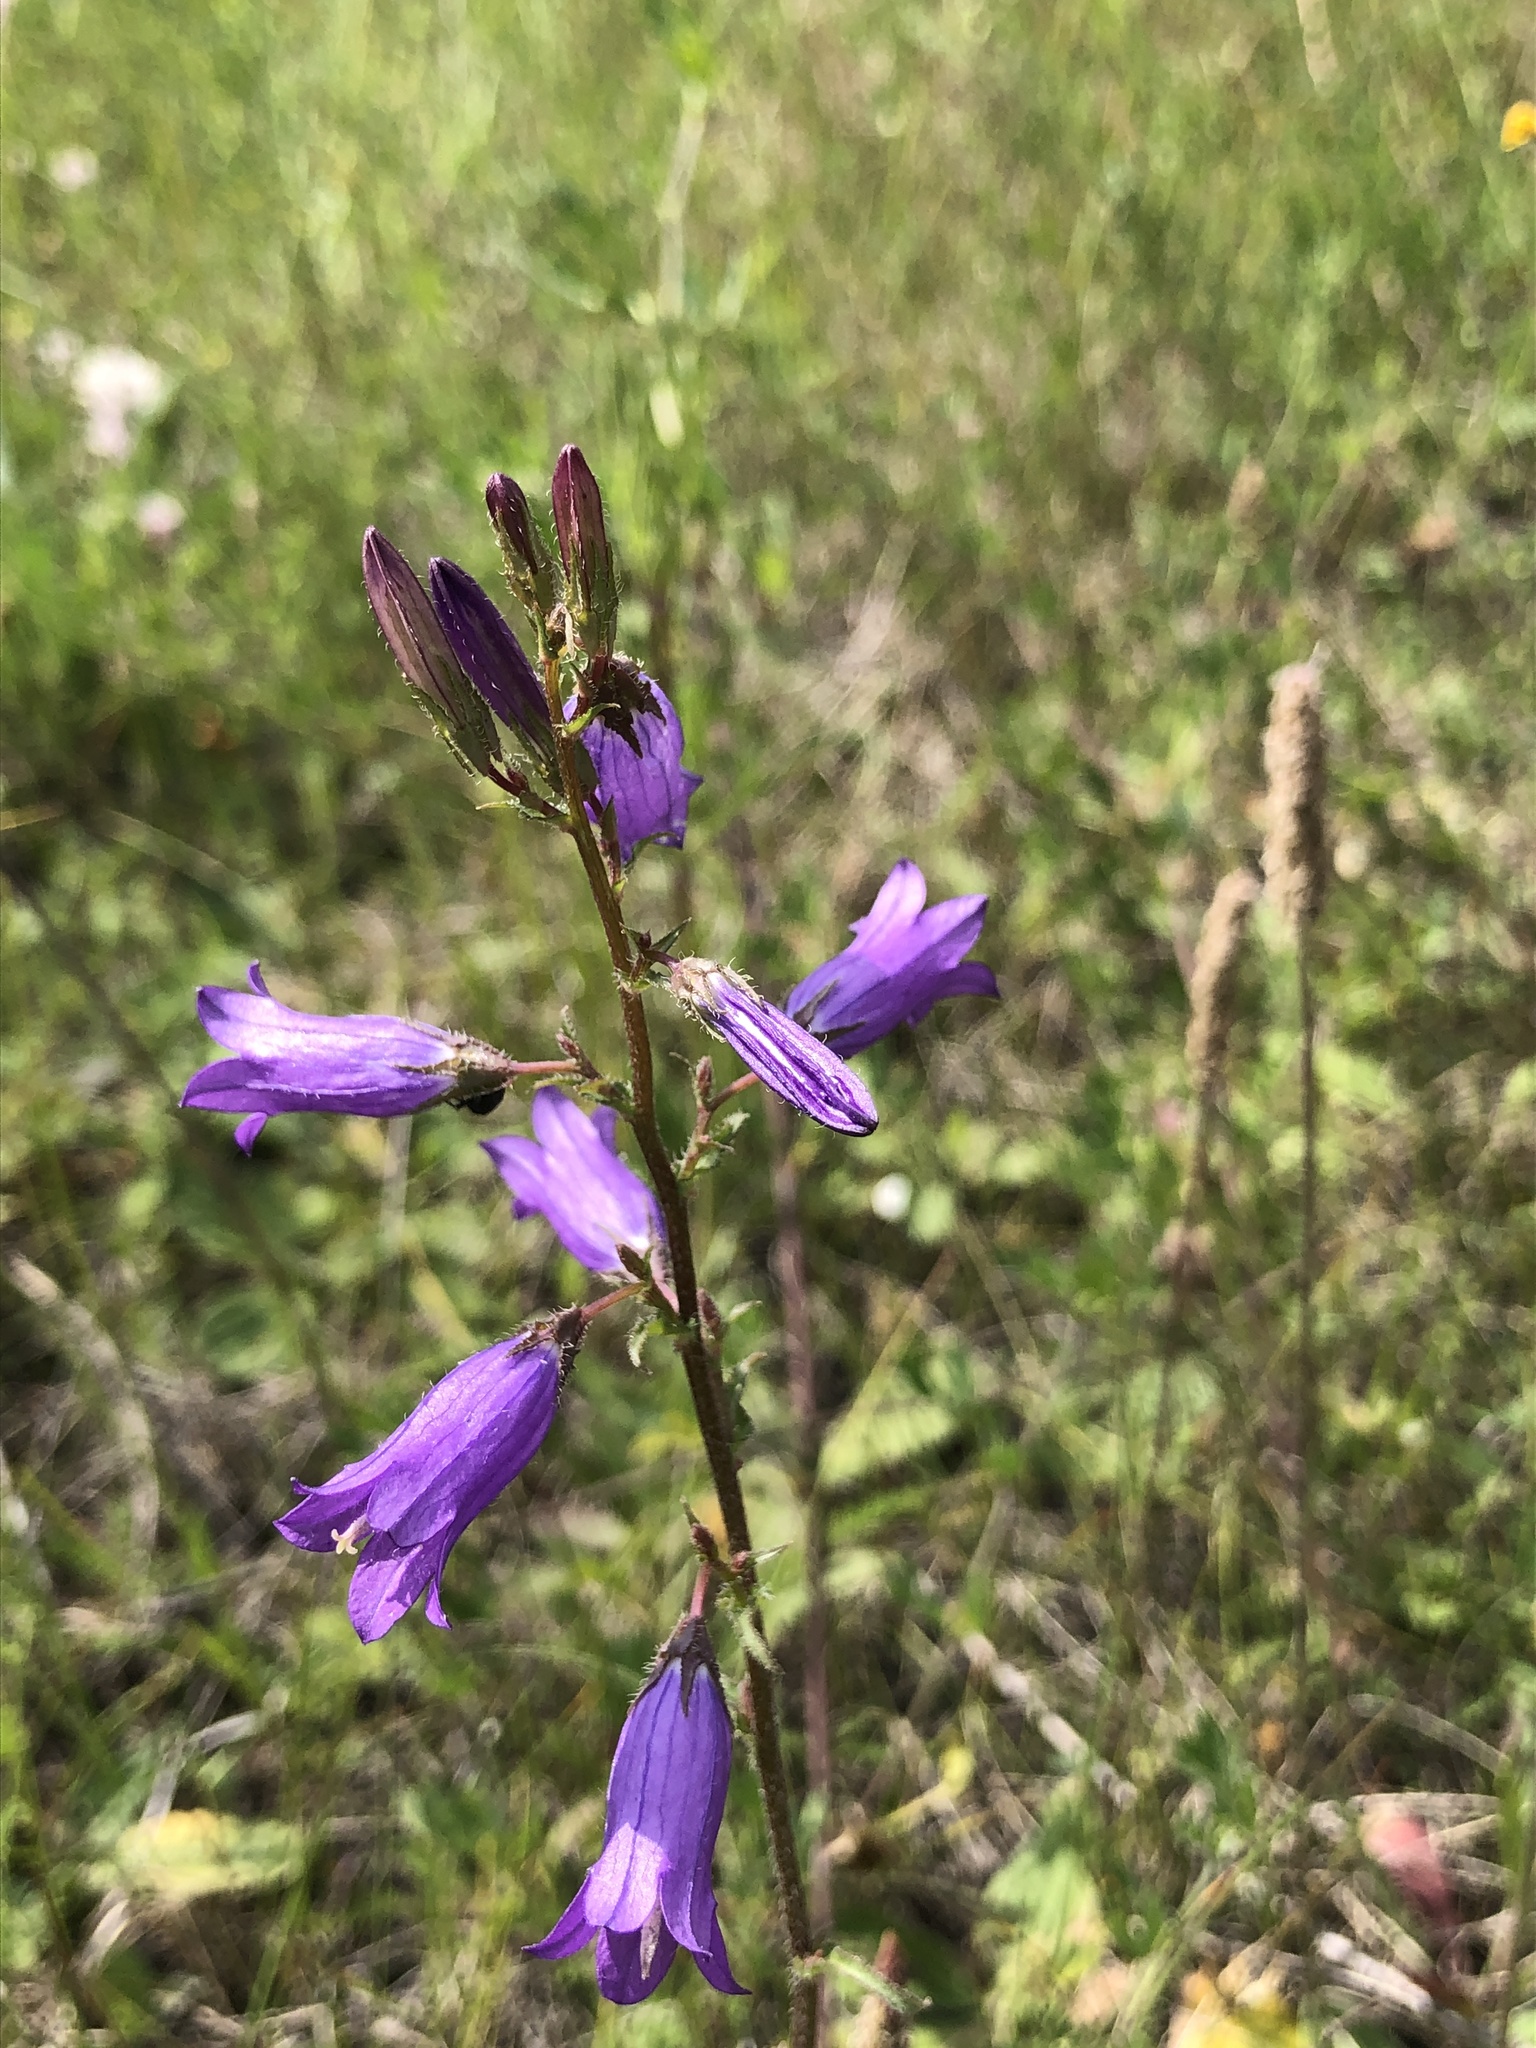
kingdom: Plantae
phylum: Tracheophyta
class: Magnoliopsida
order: Asterales
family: Campanulaceae
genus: Campanula
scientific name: Campanula sibirica
